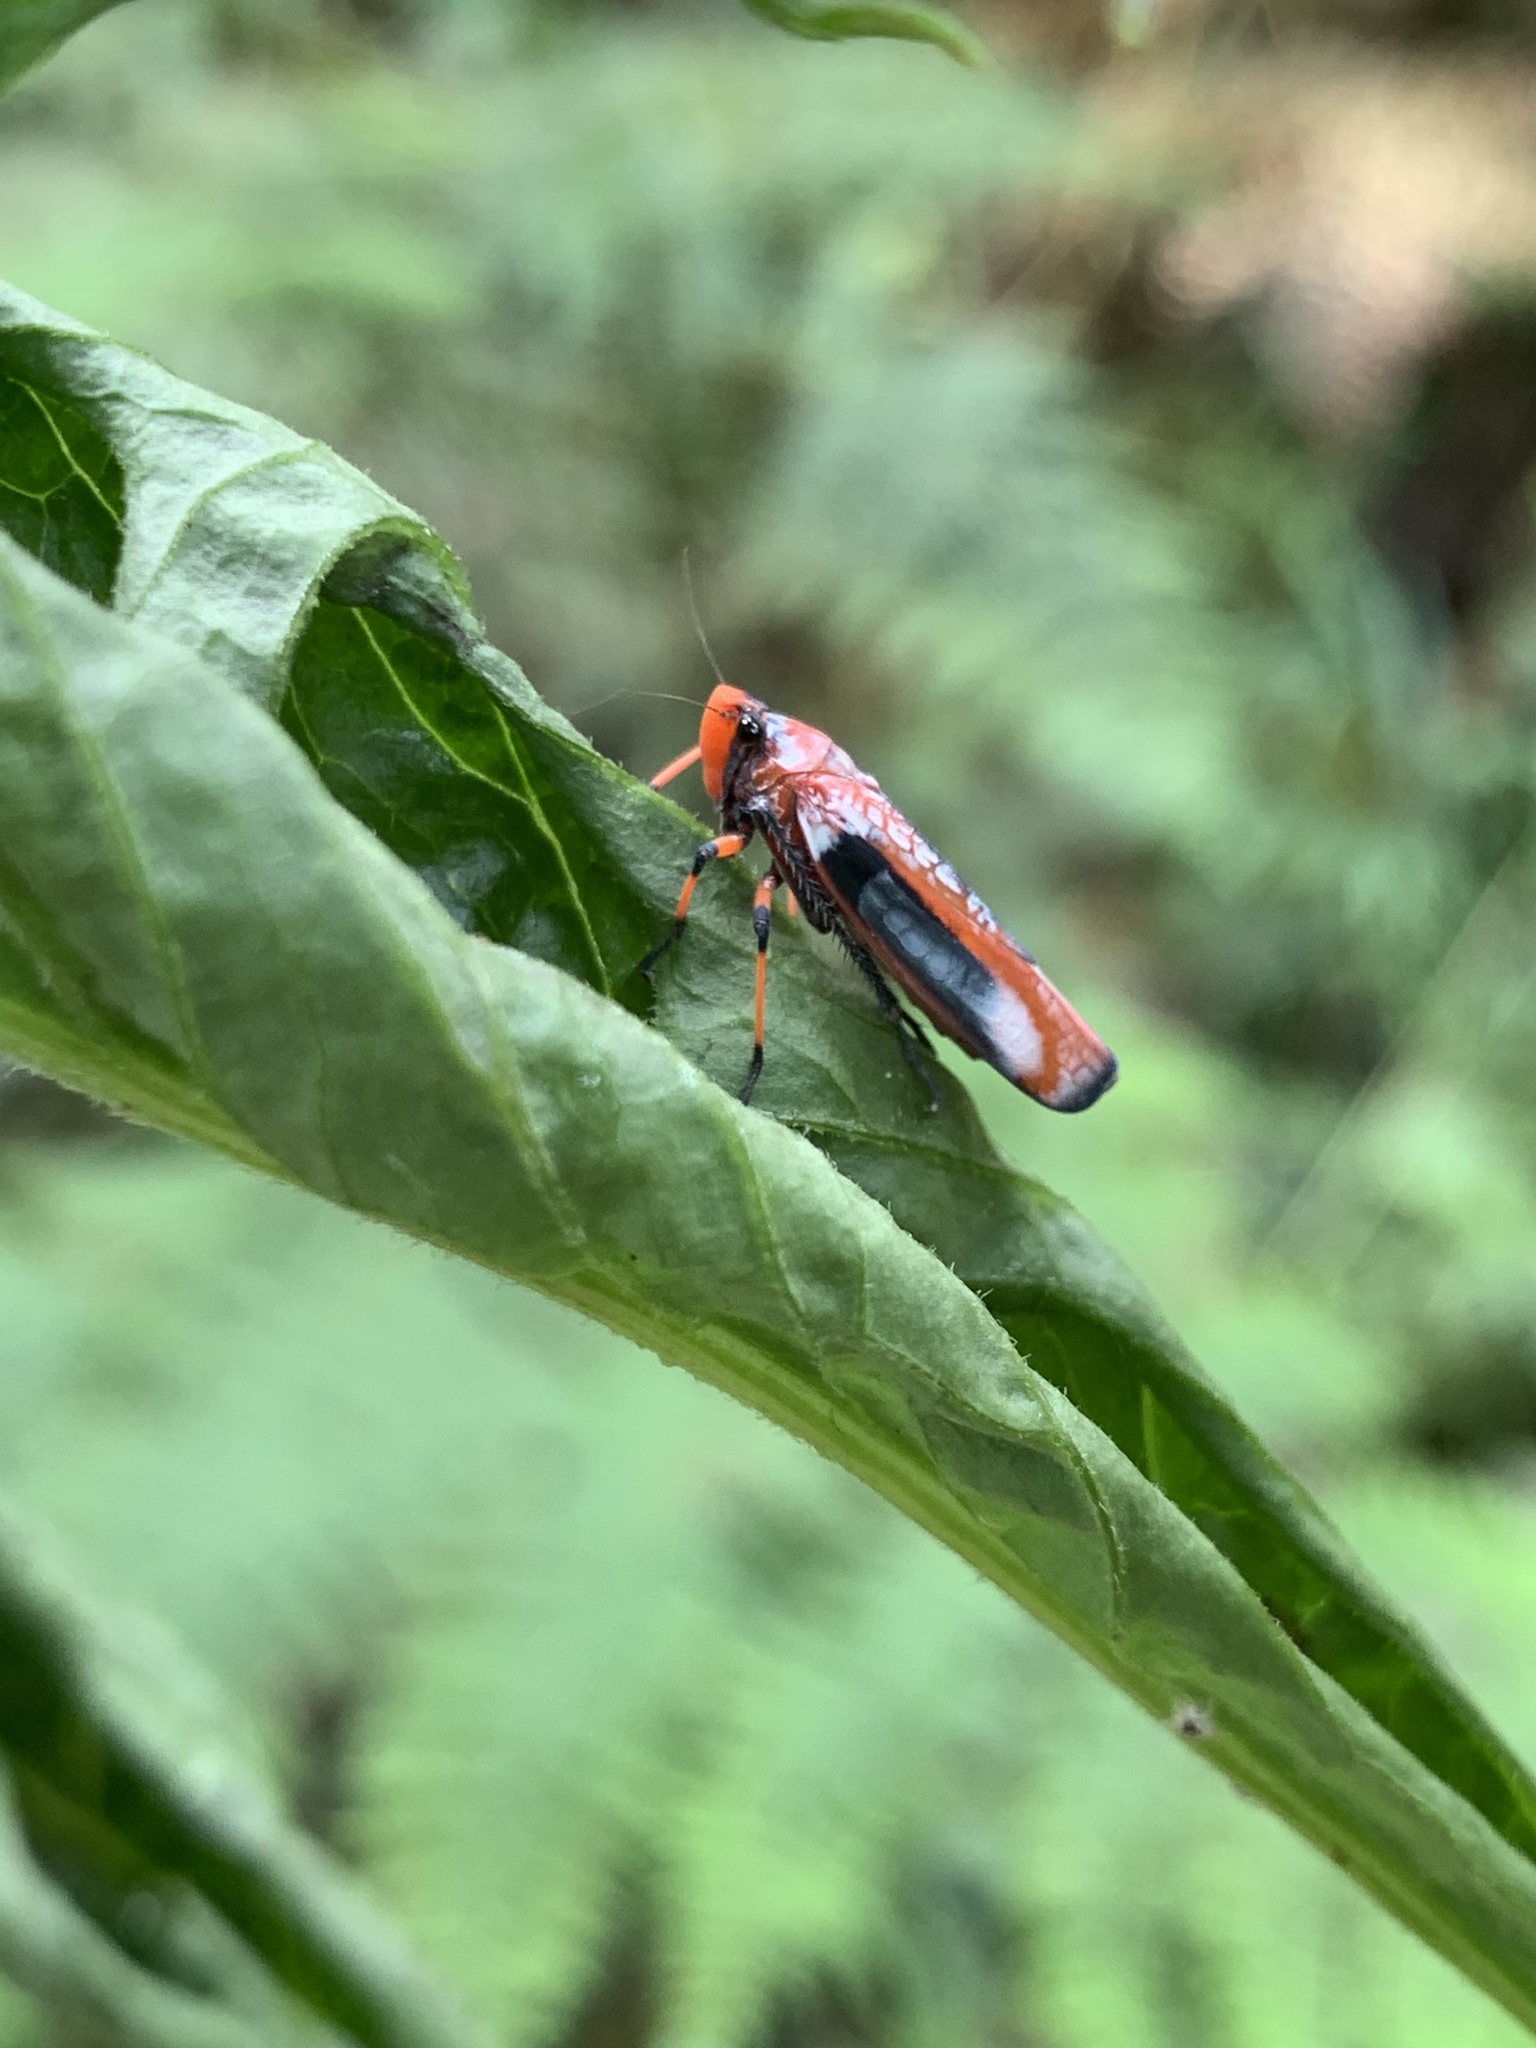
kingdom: Animalia
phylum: Arthropoda
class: Insecta
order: Hemiptera
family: Cicadellidae
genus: Onega
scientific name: Onega avella
